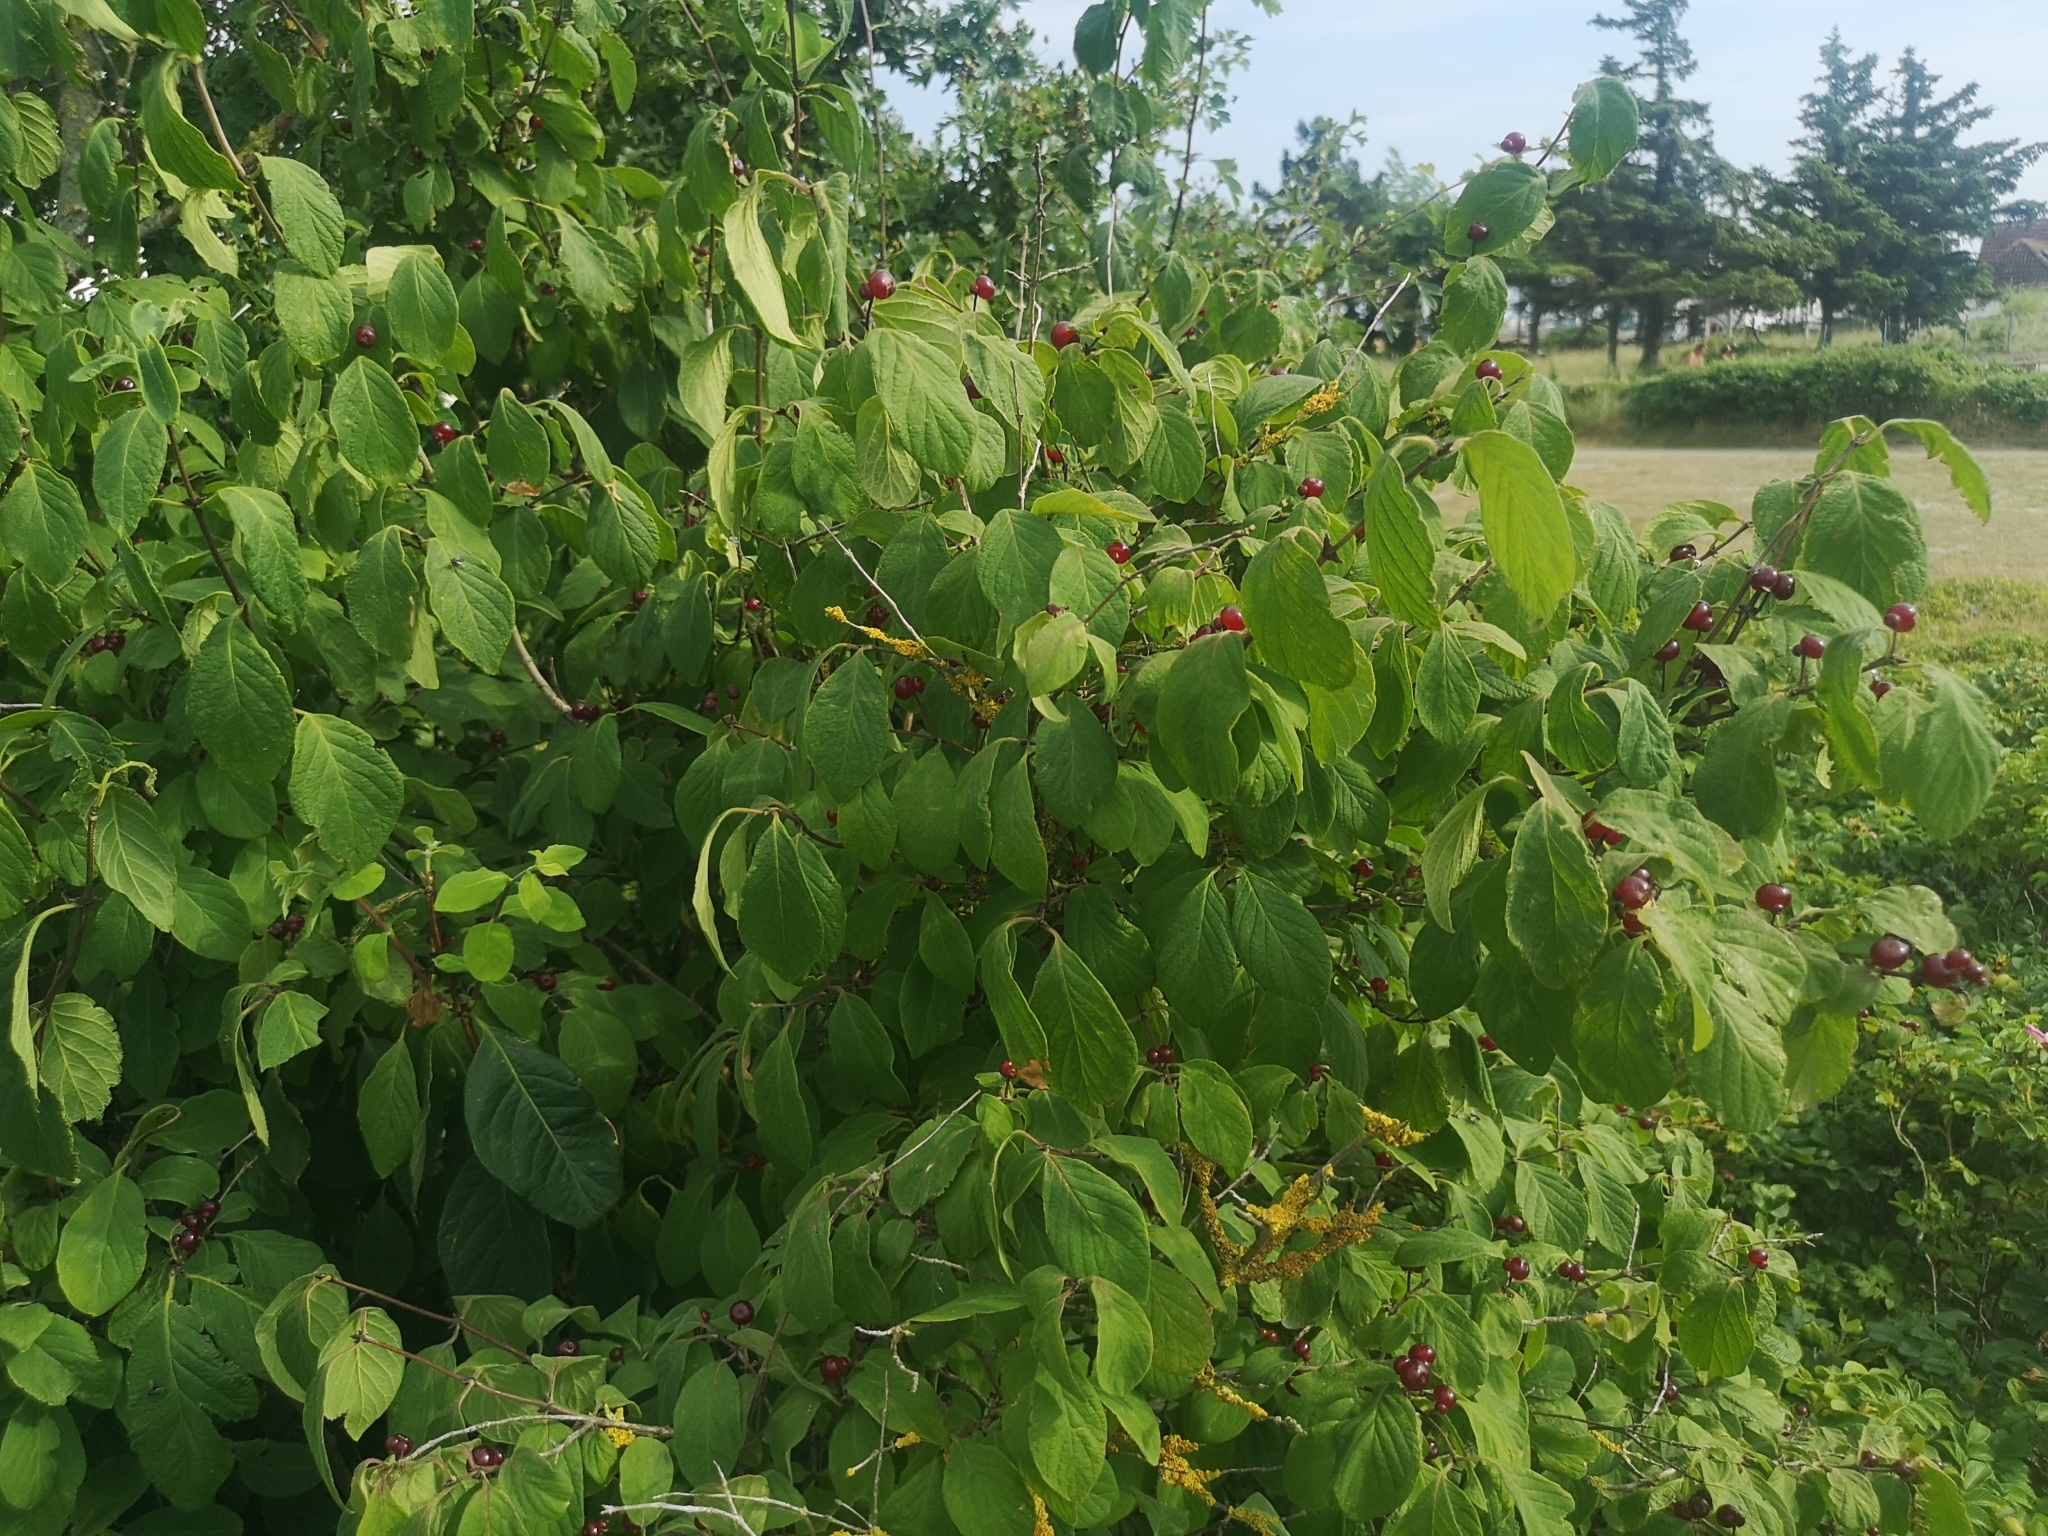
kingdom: Plantae
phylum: Tracheophyta
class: Magnoliopsida
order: Dipsacales
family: Caprifoliaceae
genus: Lonicera
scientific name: Lonicera xylosteum
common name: Fly honeysuckle
